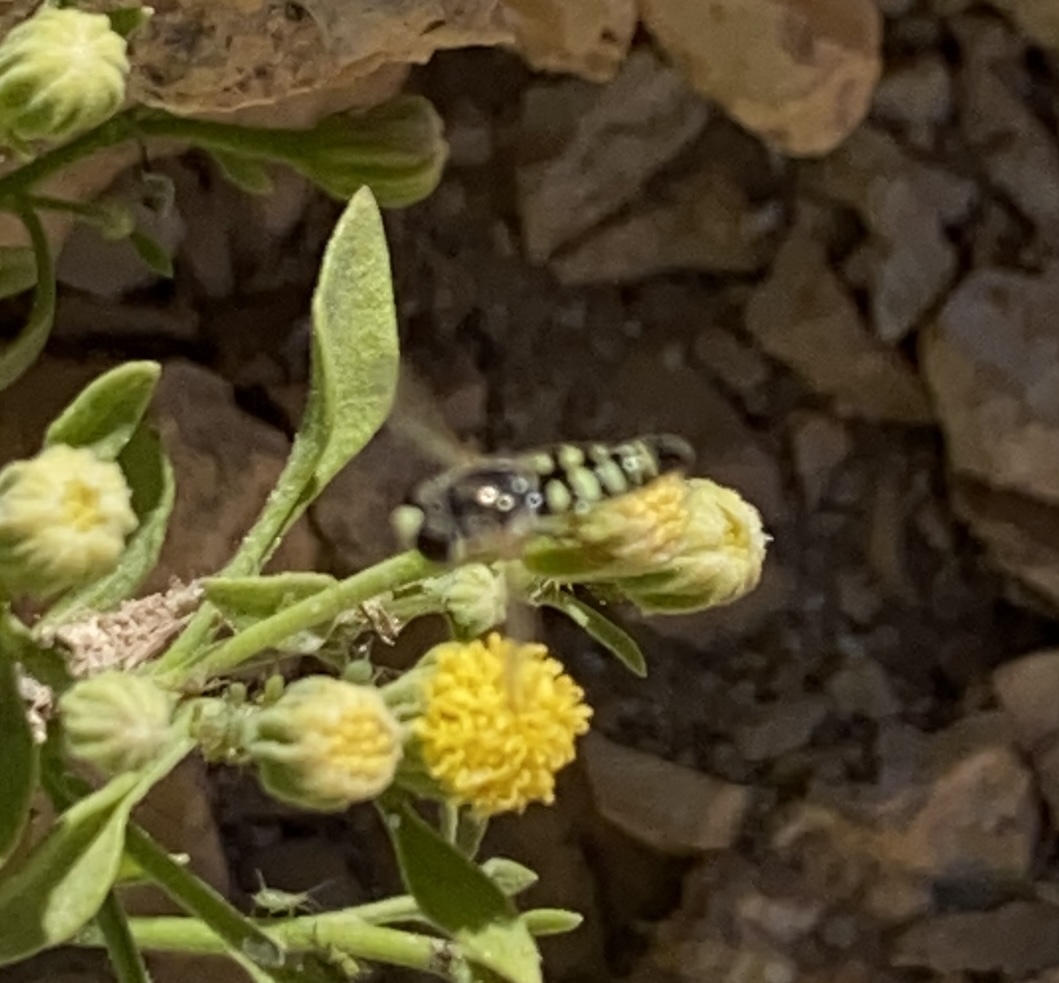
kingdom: Animalia
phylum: Arthropoda
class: Insecta
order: Diptera
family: Syrphidae
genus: Eupeodes
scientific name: Eupeodes volucris
